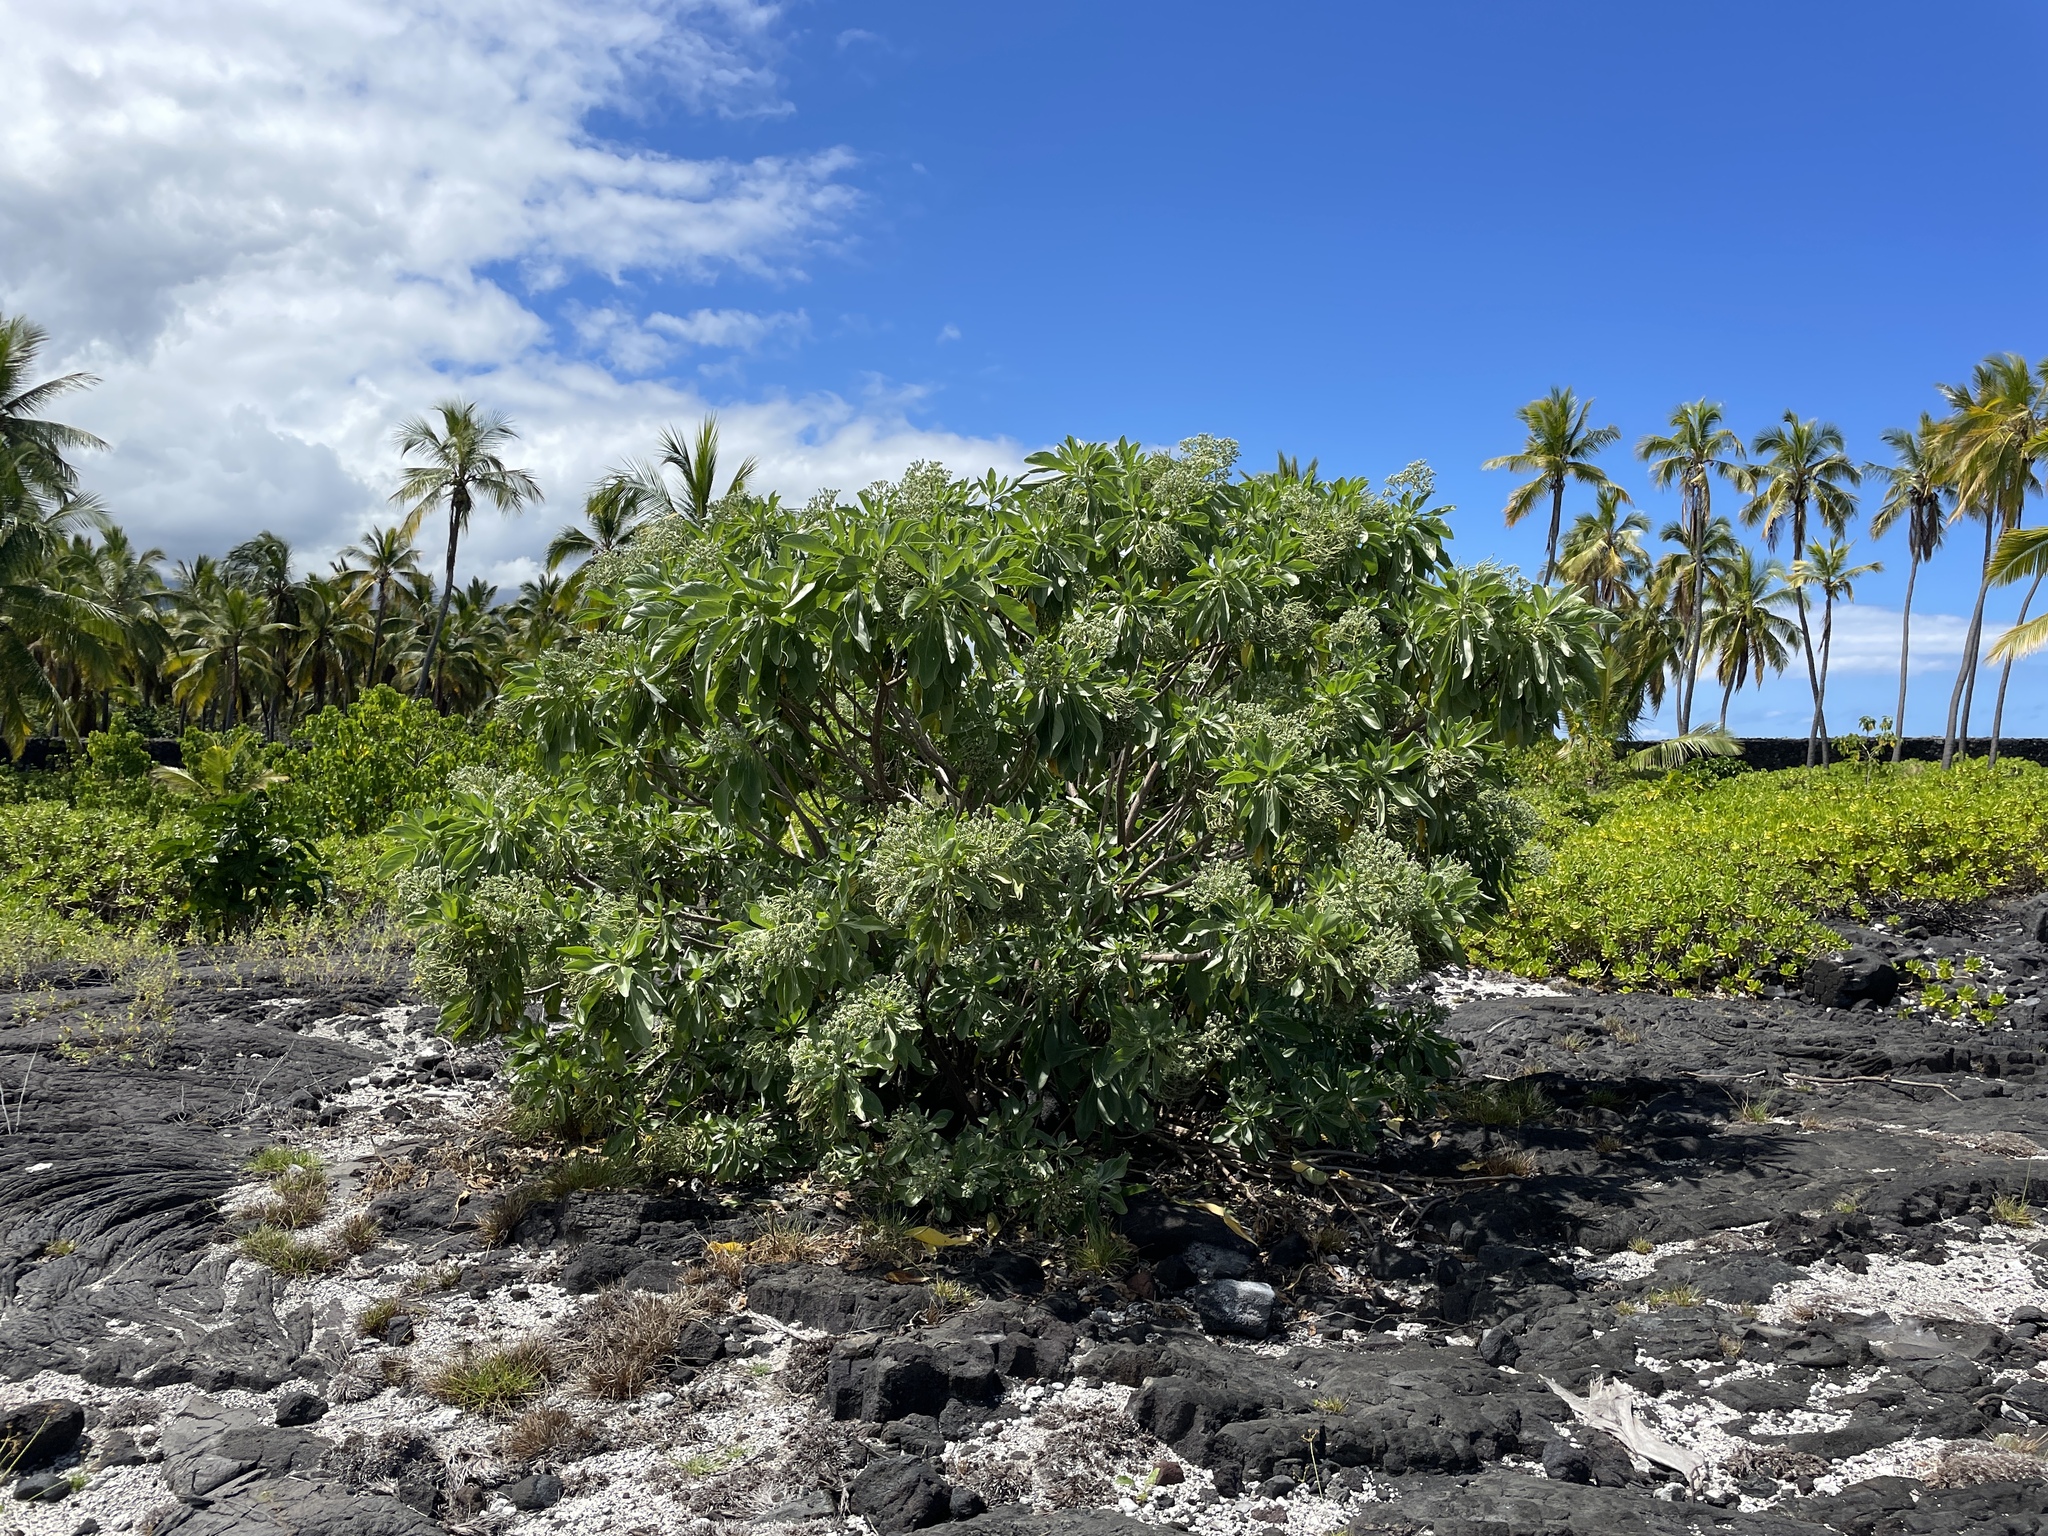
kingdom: Plantae
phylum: Tracheophyta
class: Magnoliopsida
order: Boraginales
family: Heliotropiaceae
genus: Heliotropium
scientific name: Heliotropium velutinum
